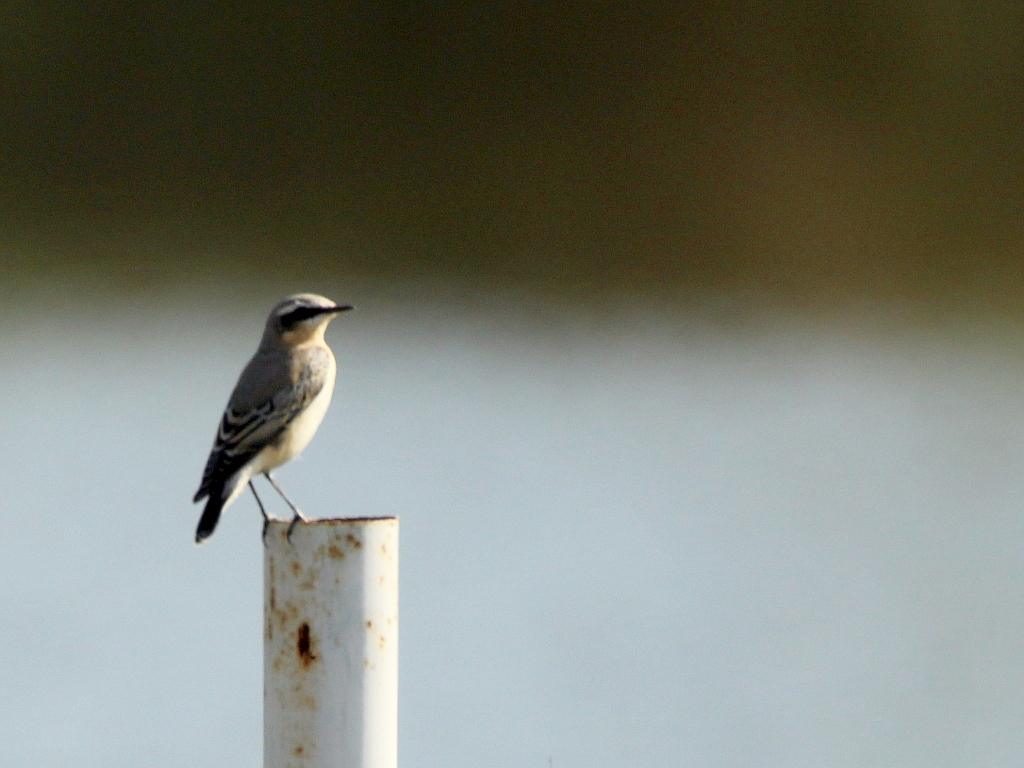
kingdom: Animalia
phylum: Chordata
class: Aves
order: Passeriformes
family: Muscicapidae
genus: Oenanthe
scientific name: Oenanthe oenanthe
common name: Northern wheatear
